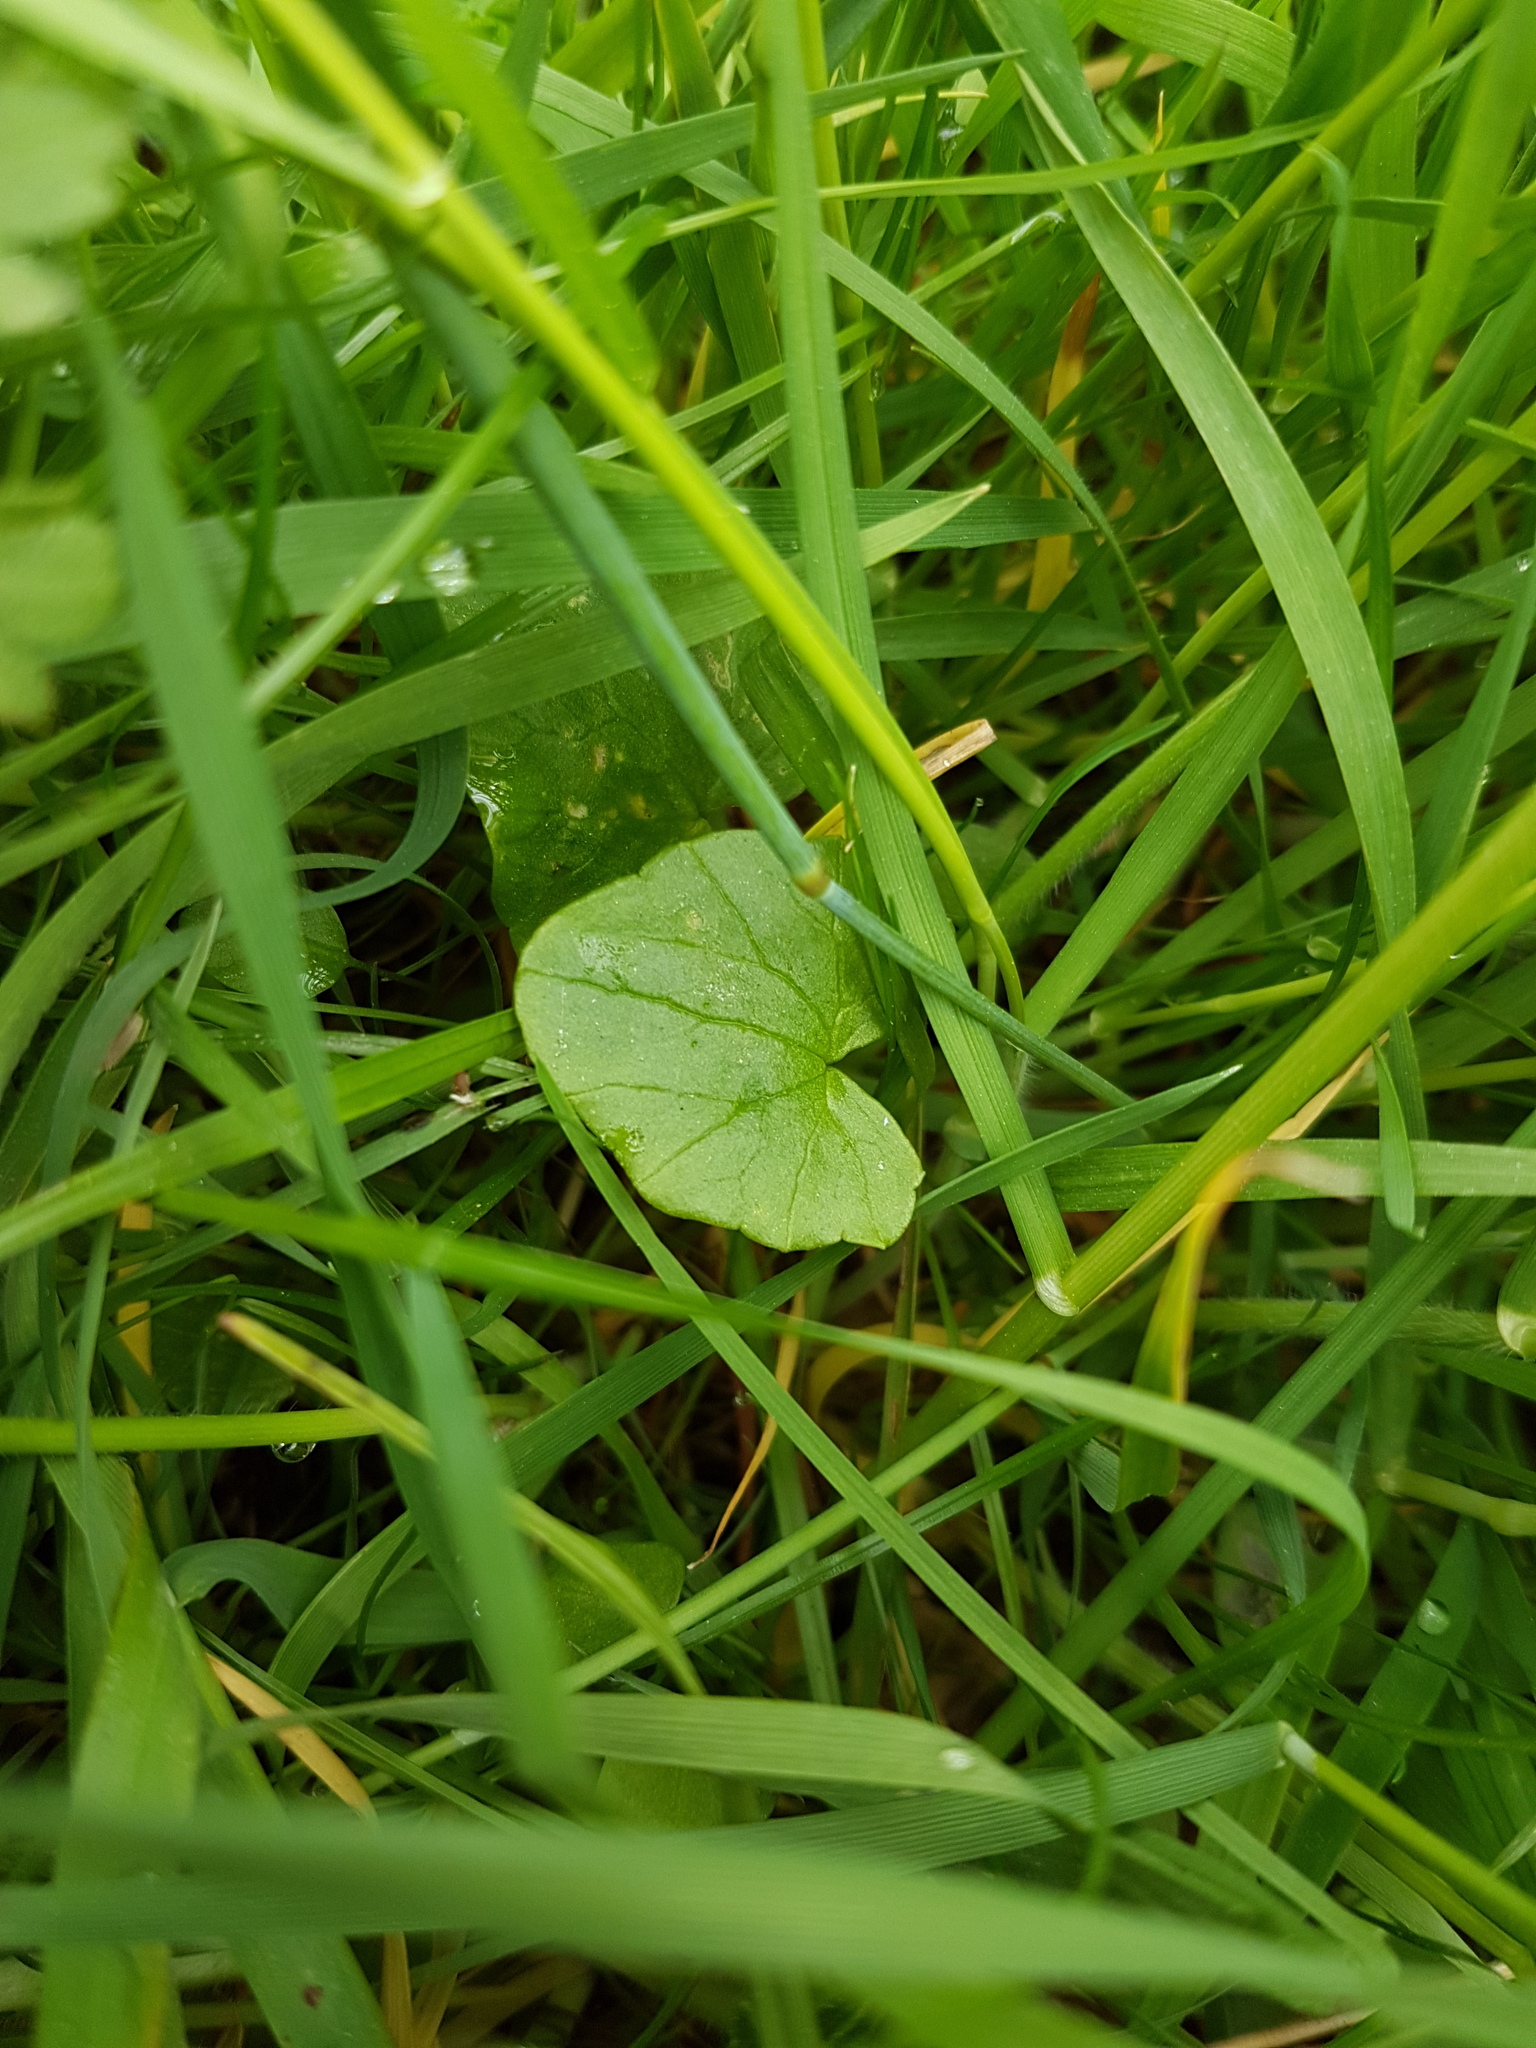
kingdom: Plantae
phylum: Tracheophyta
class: Magnoliopsida
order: Ranunculales
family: Ranunculaceae
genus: Ficaria
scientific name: Ficaria verna
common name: Lesser celandine
